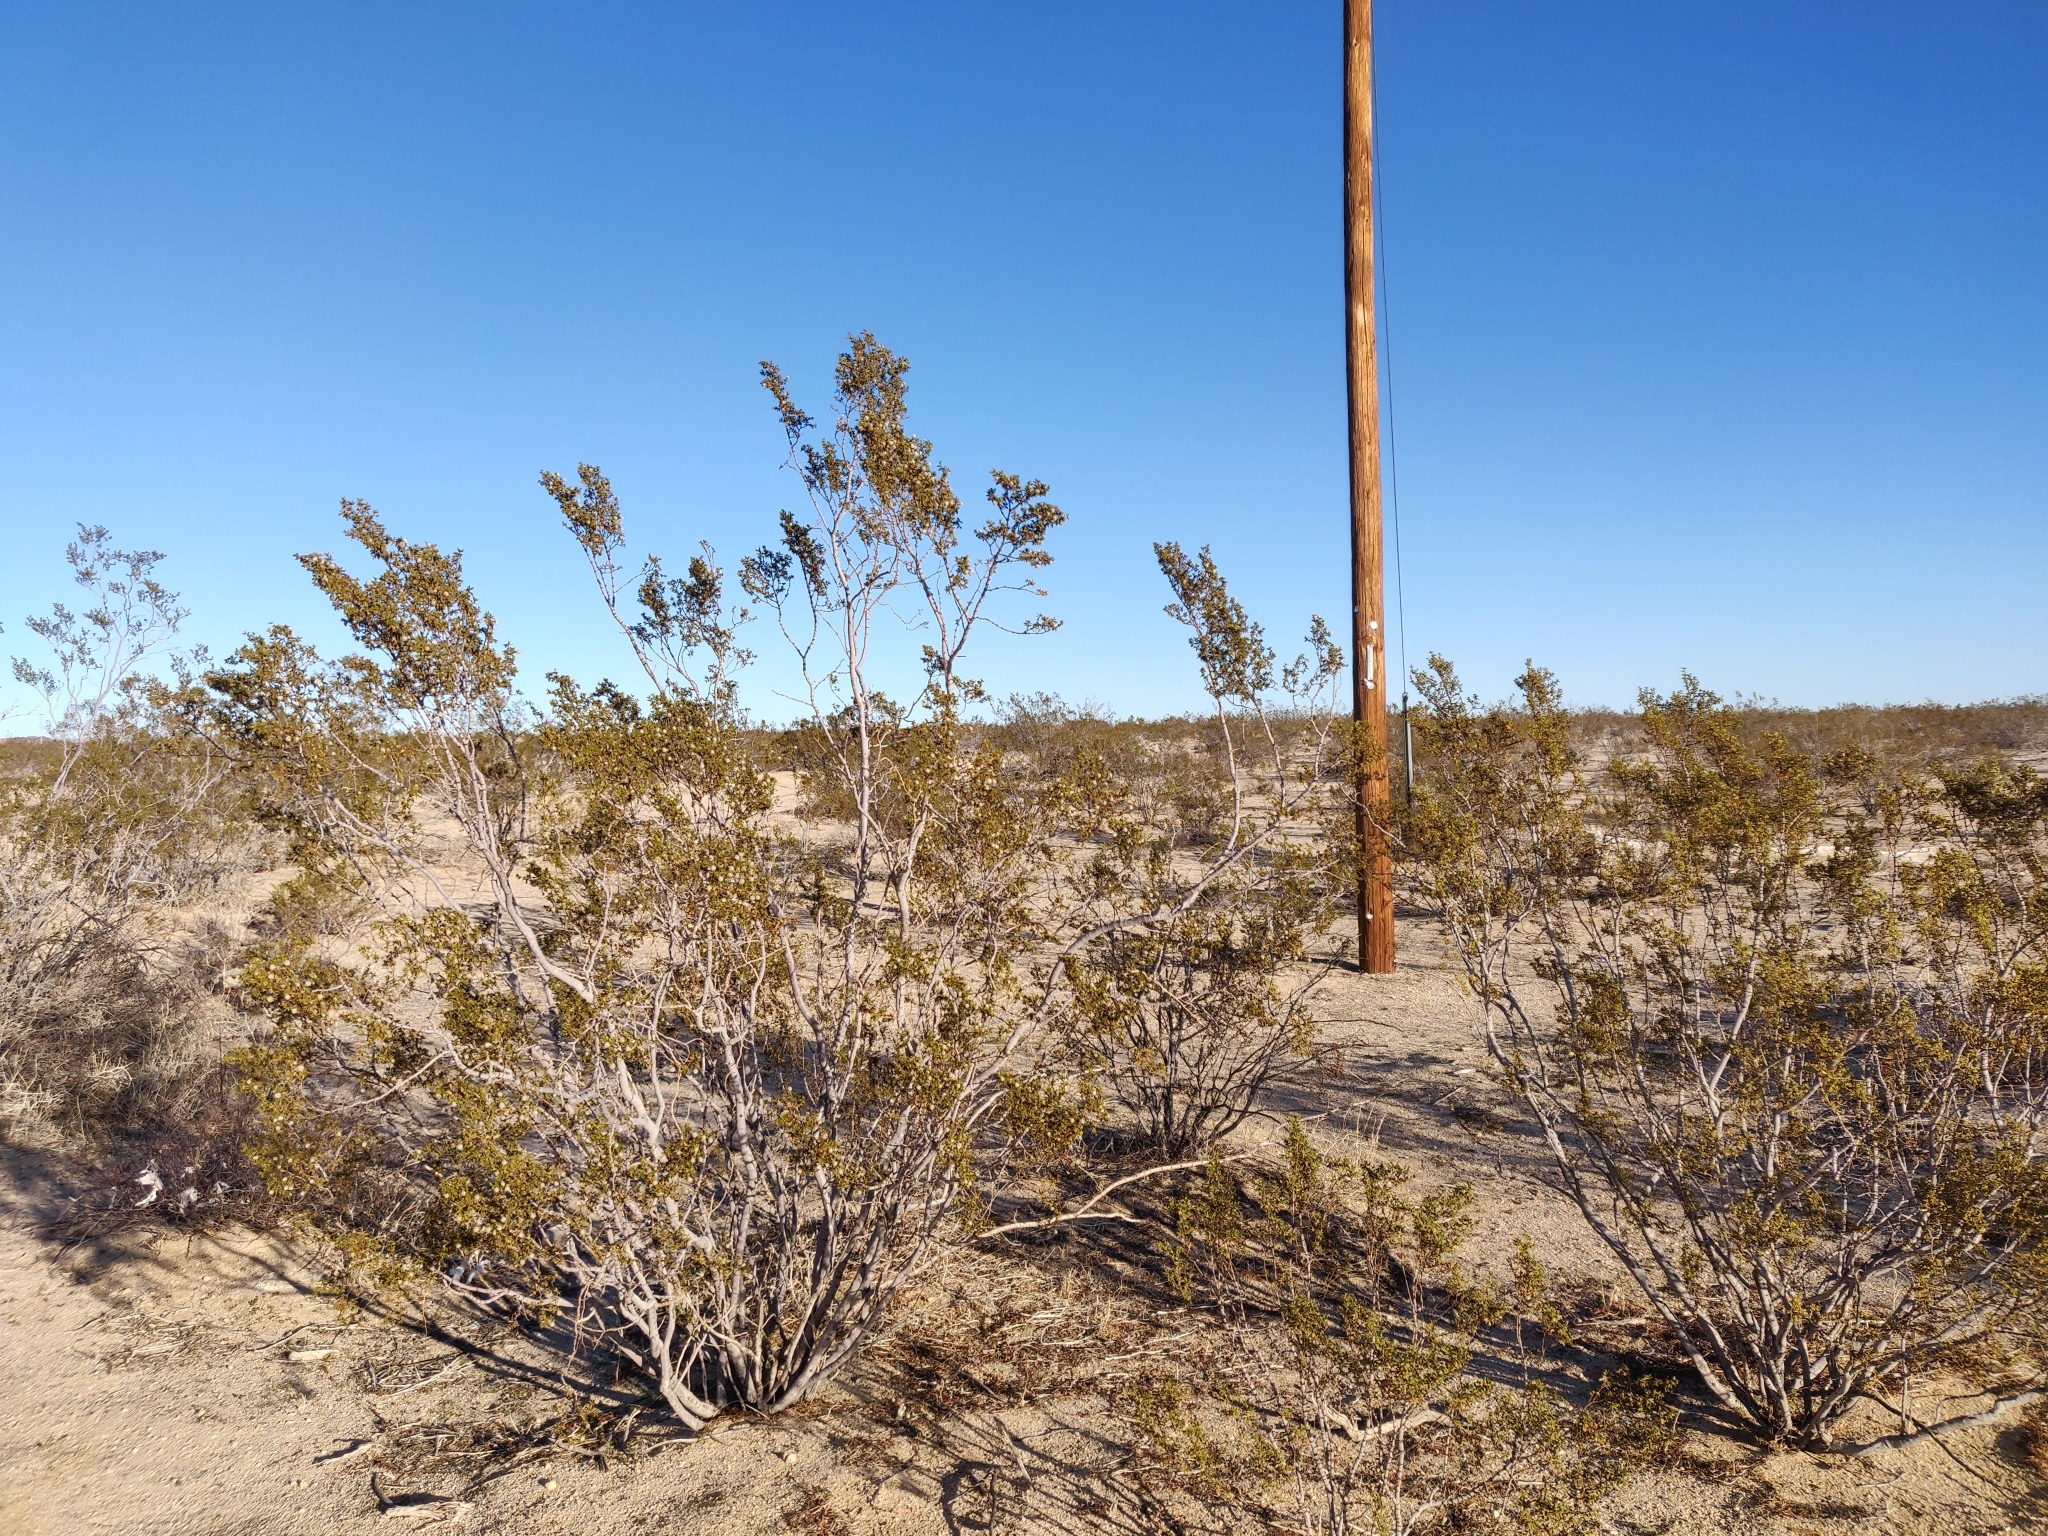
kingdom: Plantae
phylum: Tracheophyta
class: Magnoliopsida
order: Zygophyllales
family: Zygophyllaceae
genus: Larrea
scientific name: Larrea tridentata
